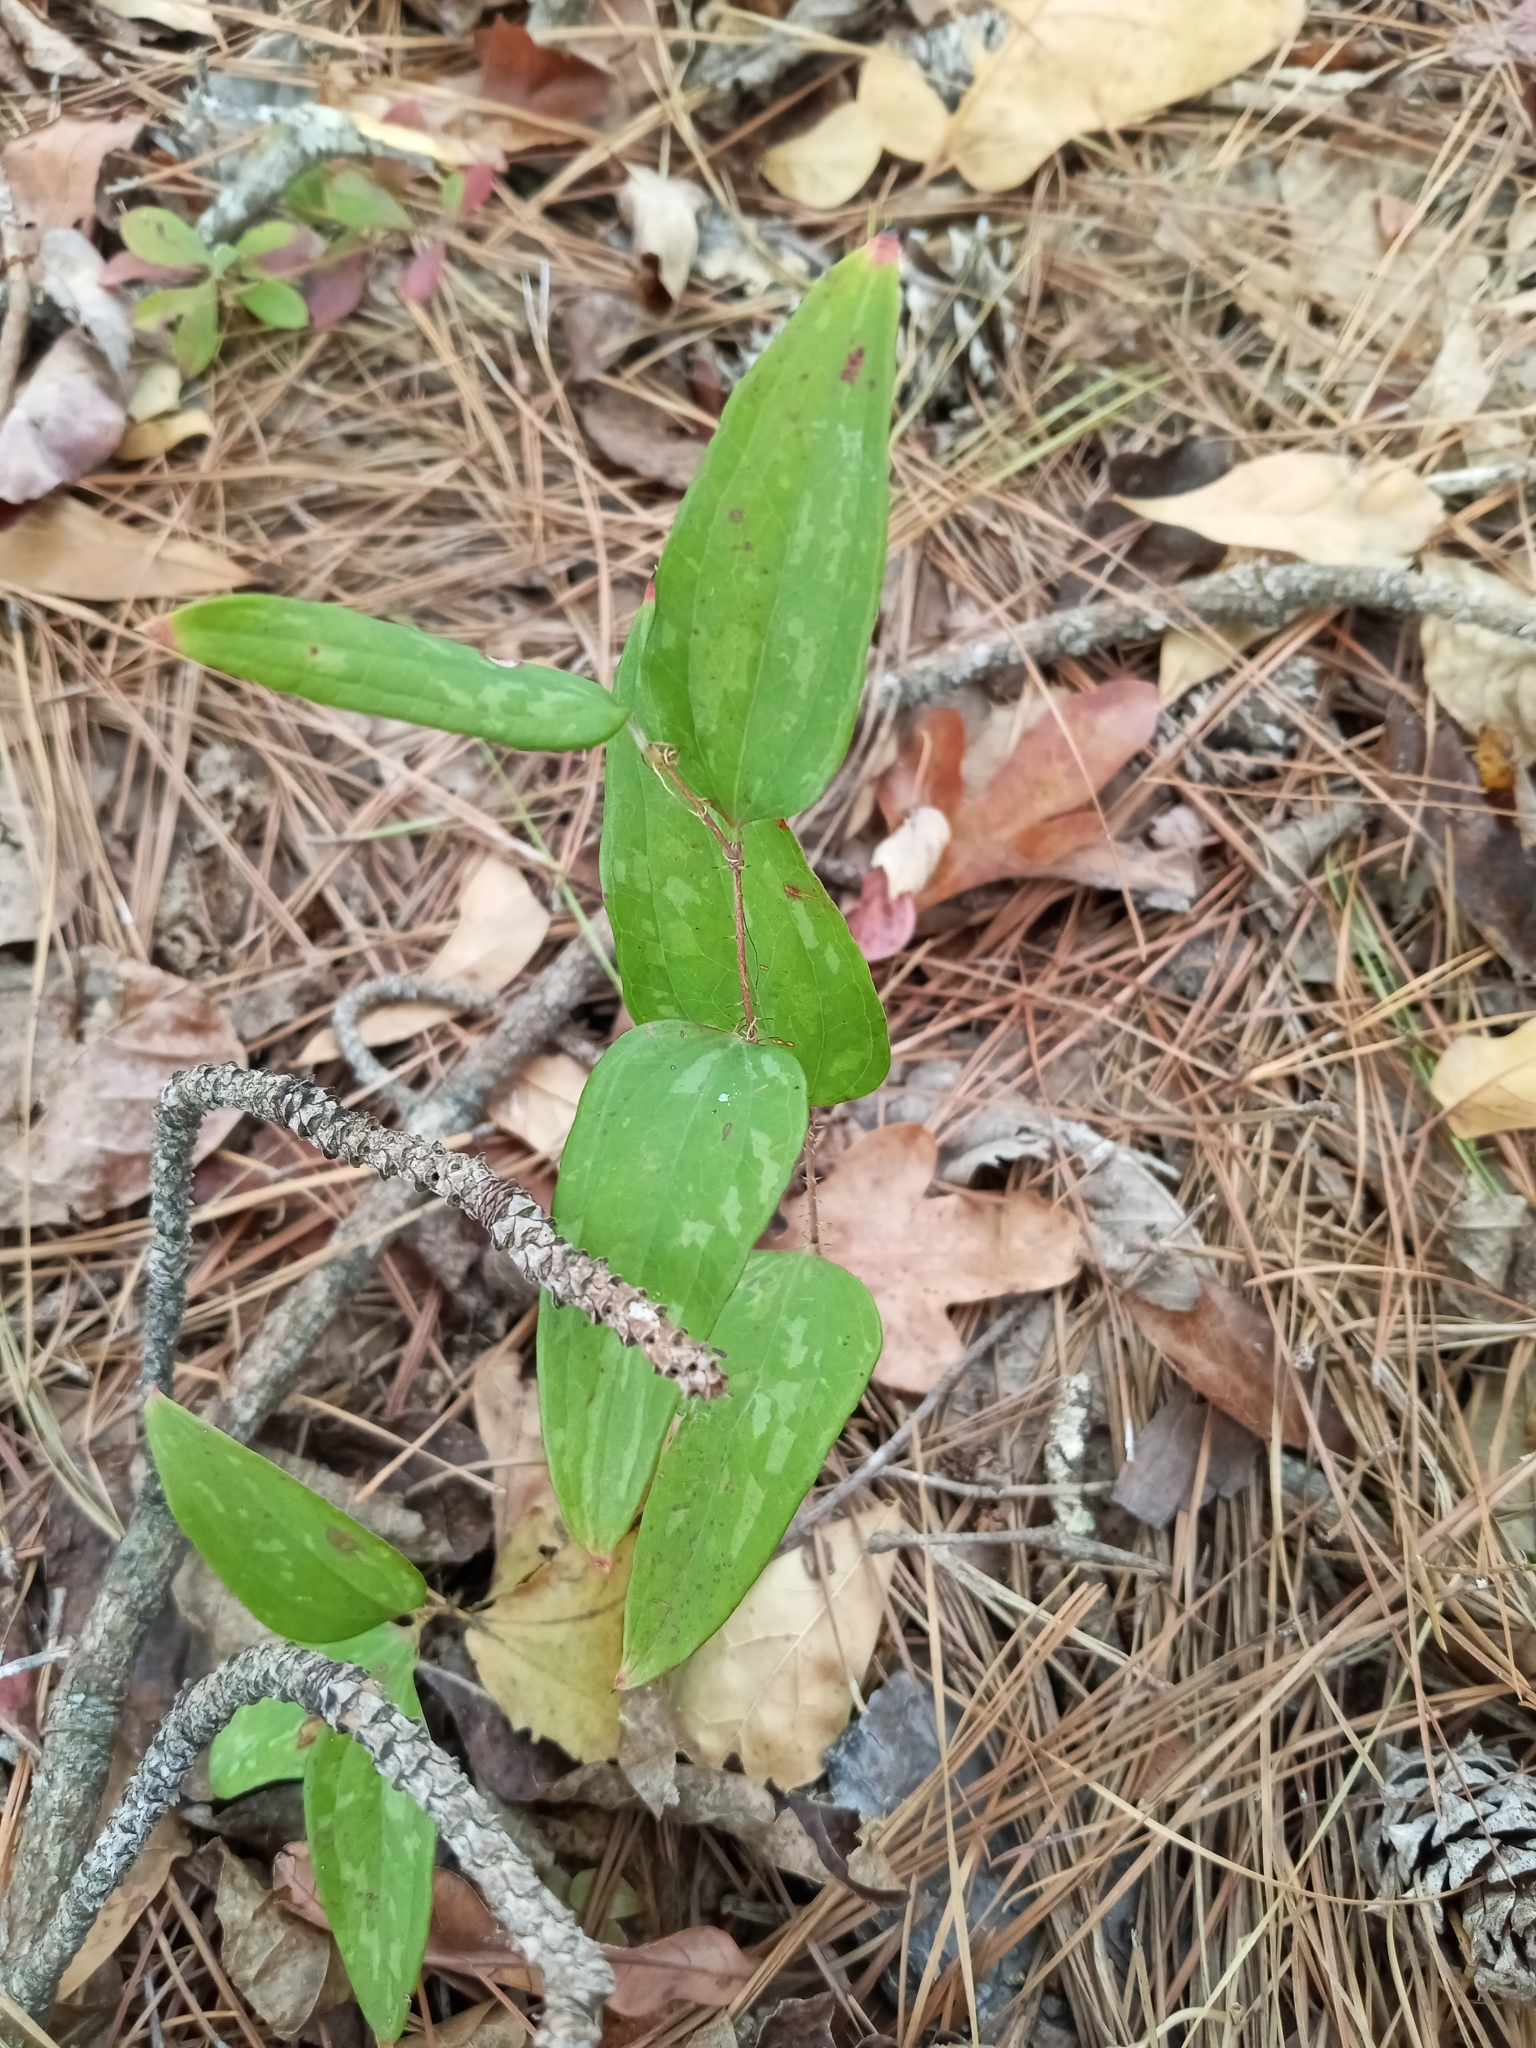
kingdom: Plantae
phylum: Tracheophyta
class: Liliopsida
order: Liliales
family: Smilacaceae
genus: Smilax
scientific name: Smilax glauca
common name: Cat greenbrier
